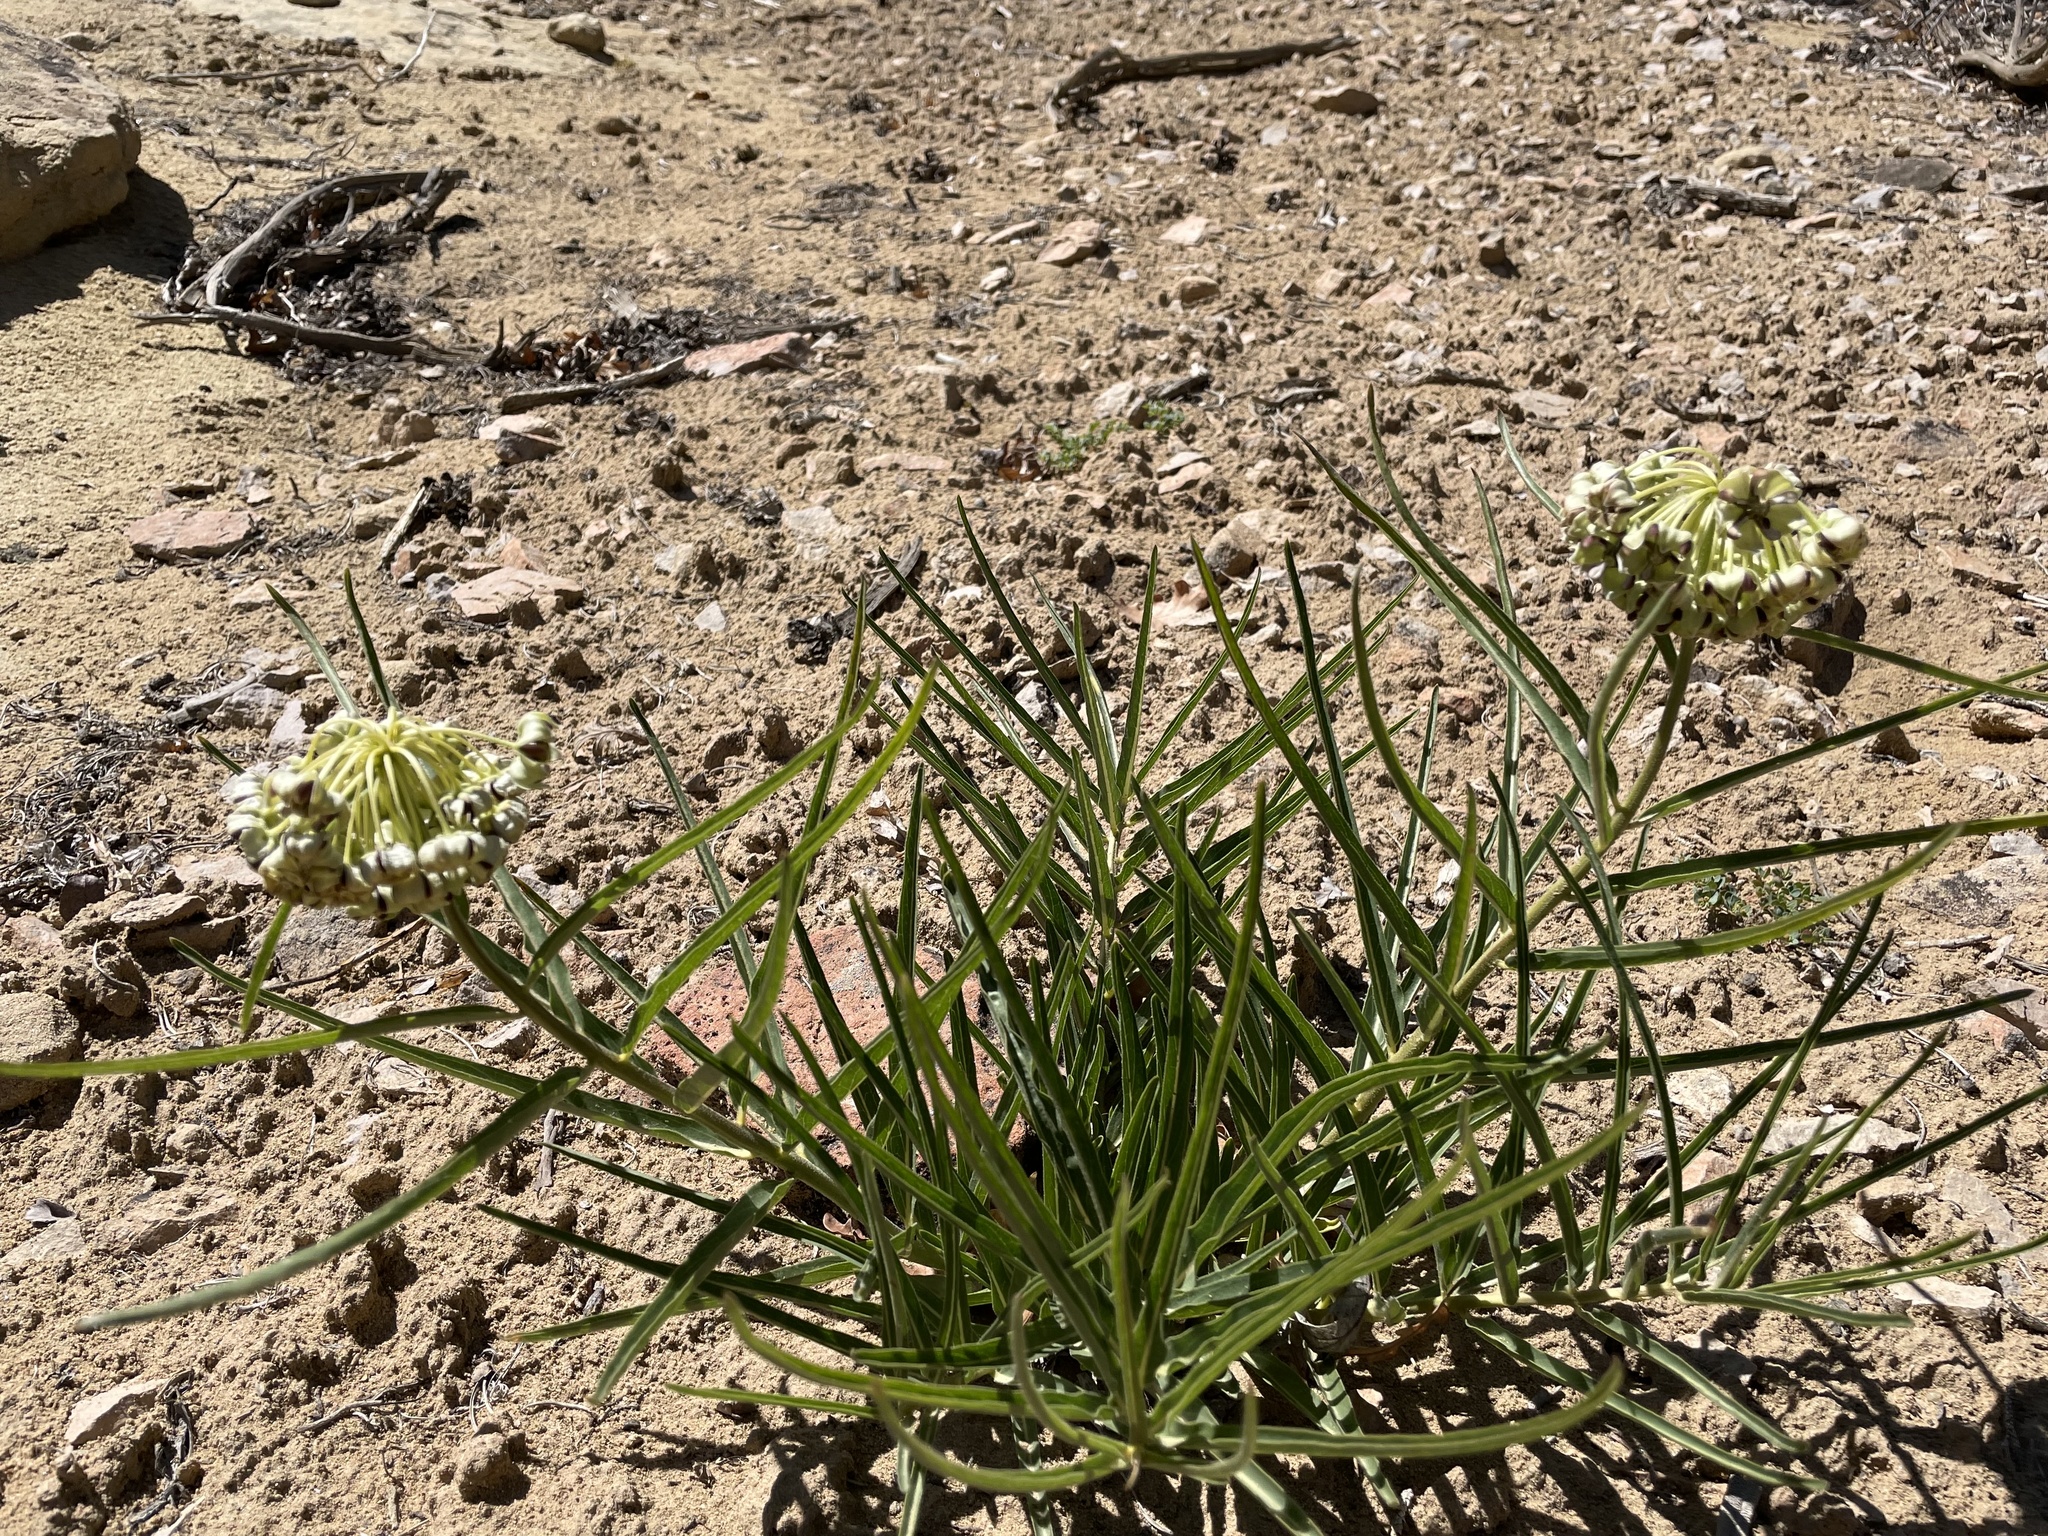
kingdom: Plantae
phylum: Tracheophyta
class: Magnoliopsida
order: Gentianales
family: Apocynaceae
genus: Asclepias
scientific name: Asclepias asperula
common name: Antelope horns
